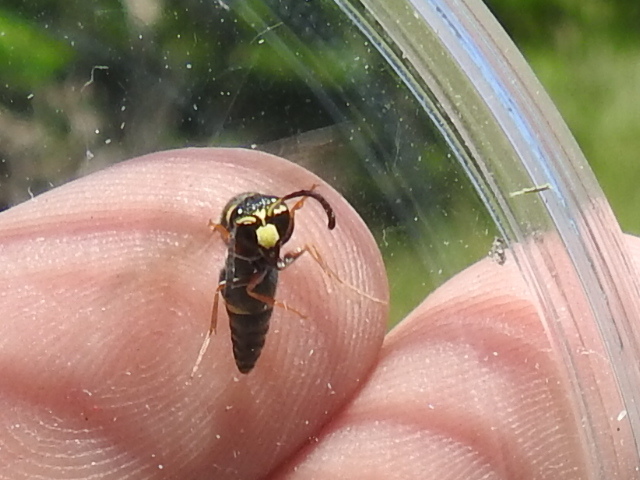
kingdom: Animalia
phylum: Arthropoda
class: Insecta
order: Hymenoptera
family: Eumenidae
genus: Parancistrocerus
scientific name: Parancistrocerus fulvipes
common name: Potter wasp
